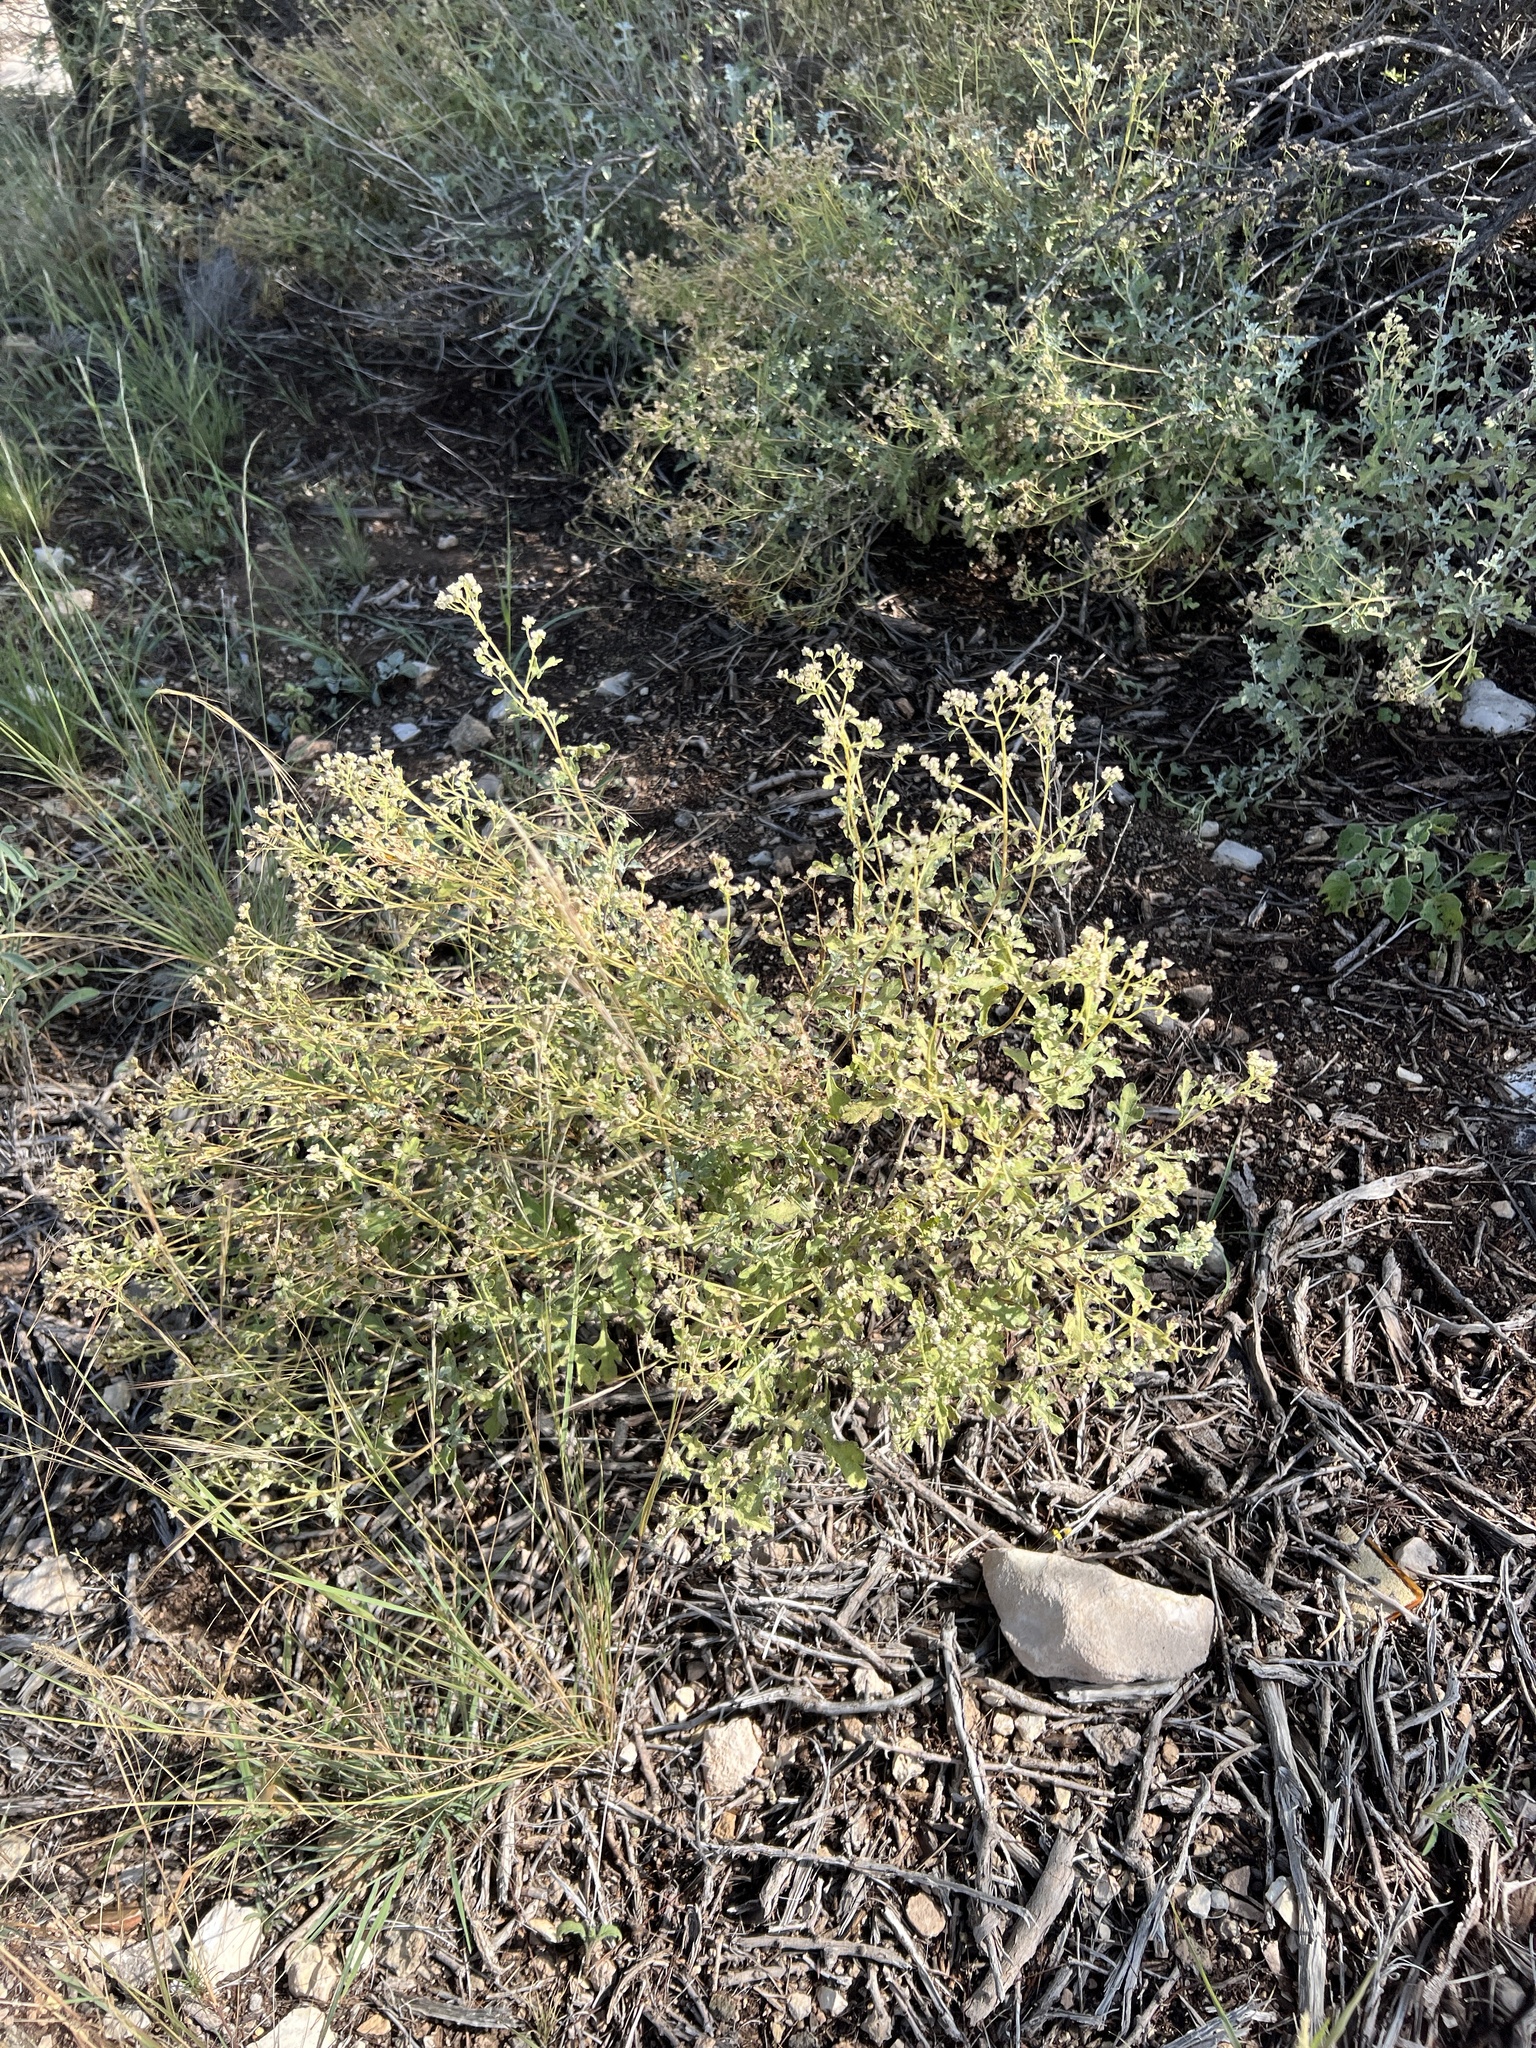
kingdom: Plantae
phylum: Tracheophyta
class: Magnoliopsida
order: Asterales
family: Asteraceae
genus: Parthenium
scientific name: Parthenium incanum
